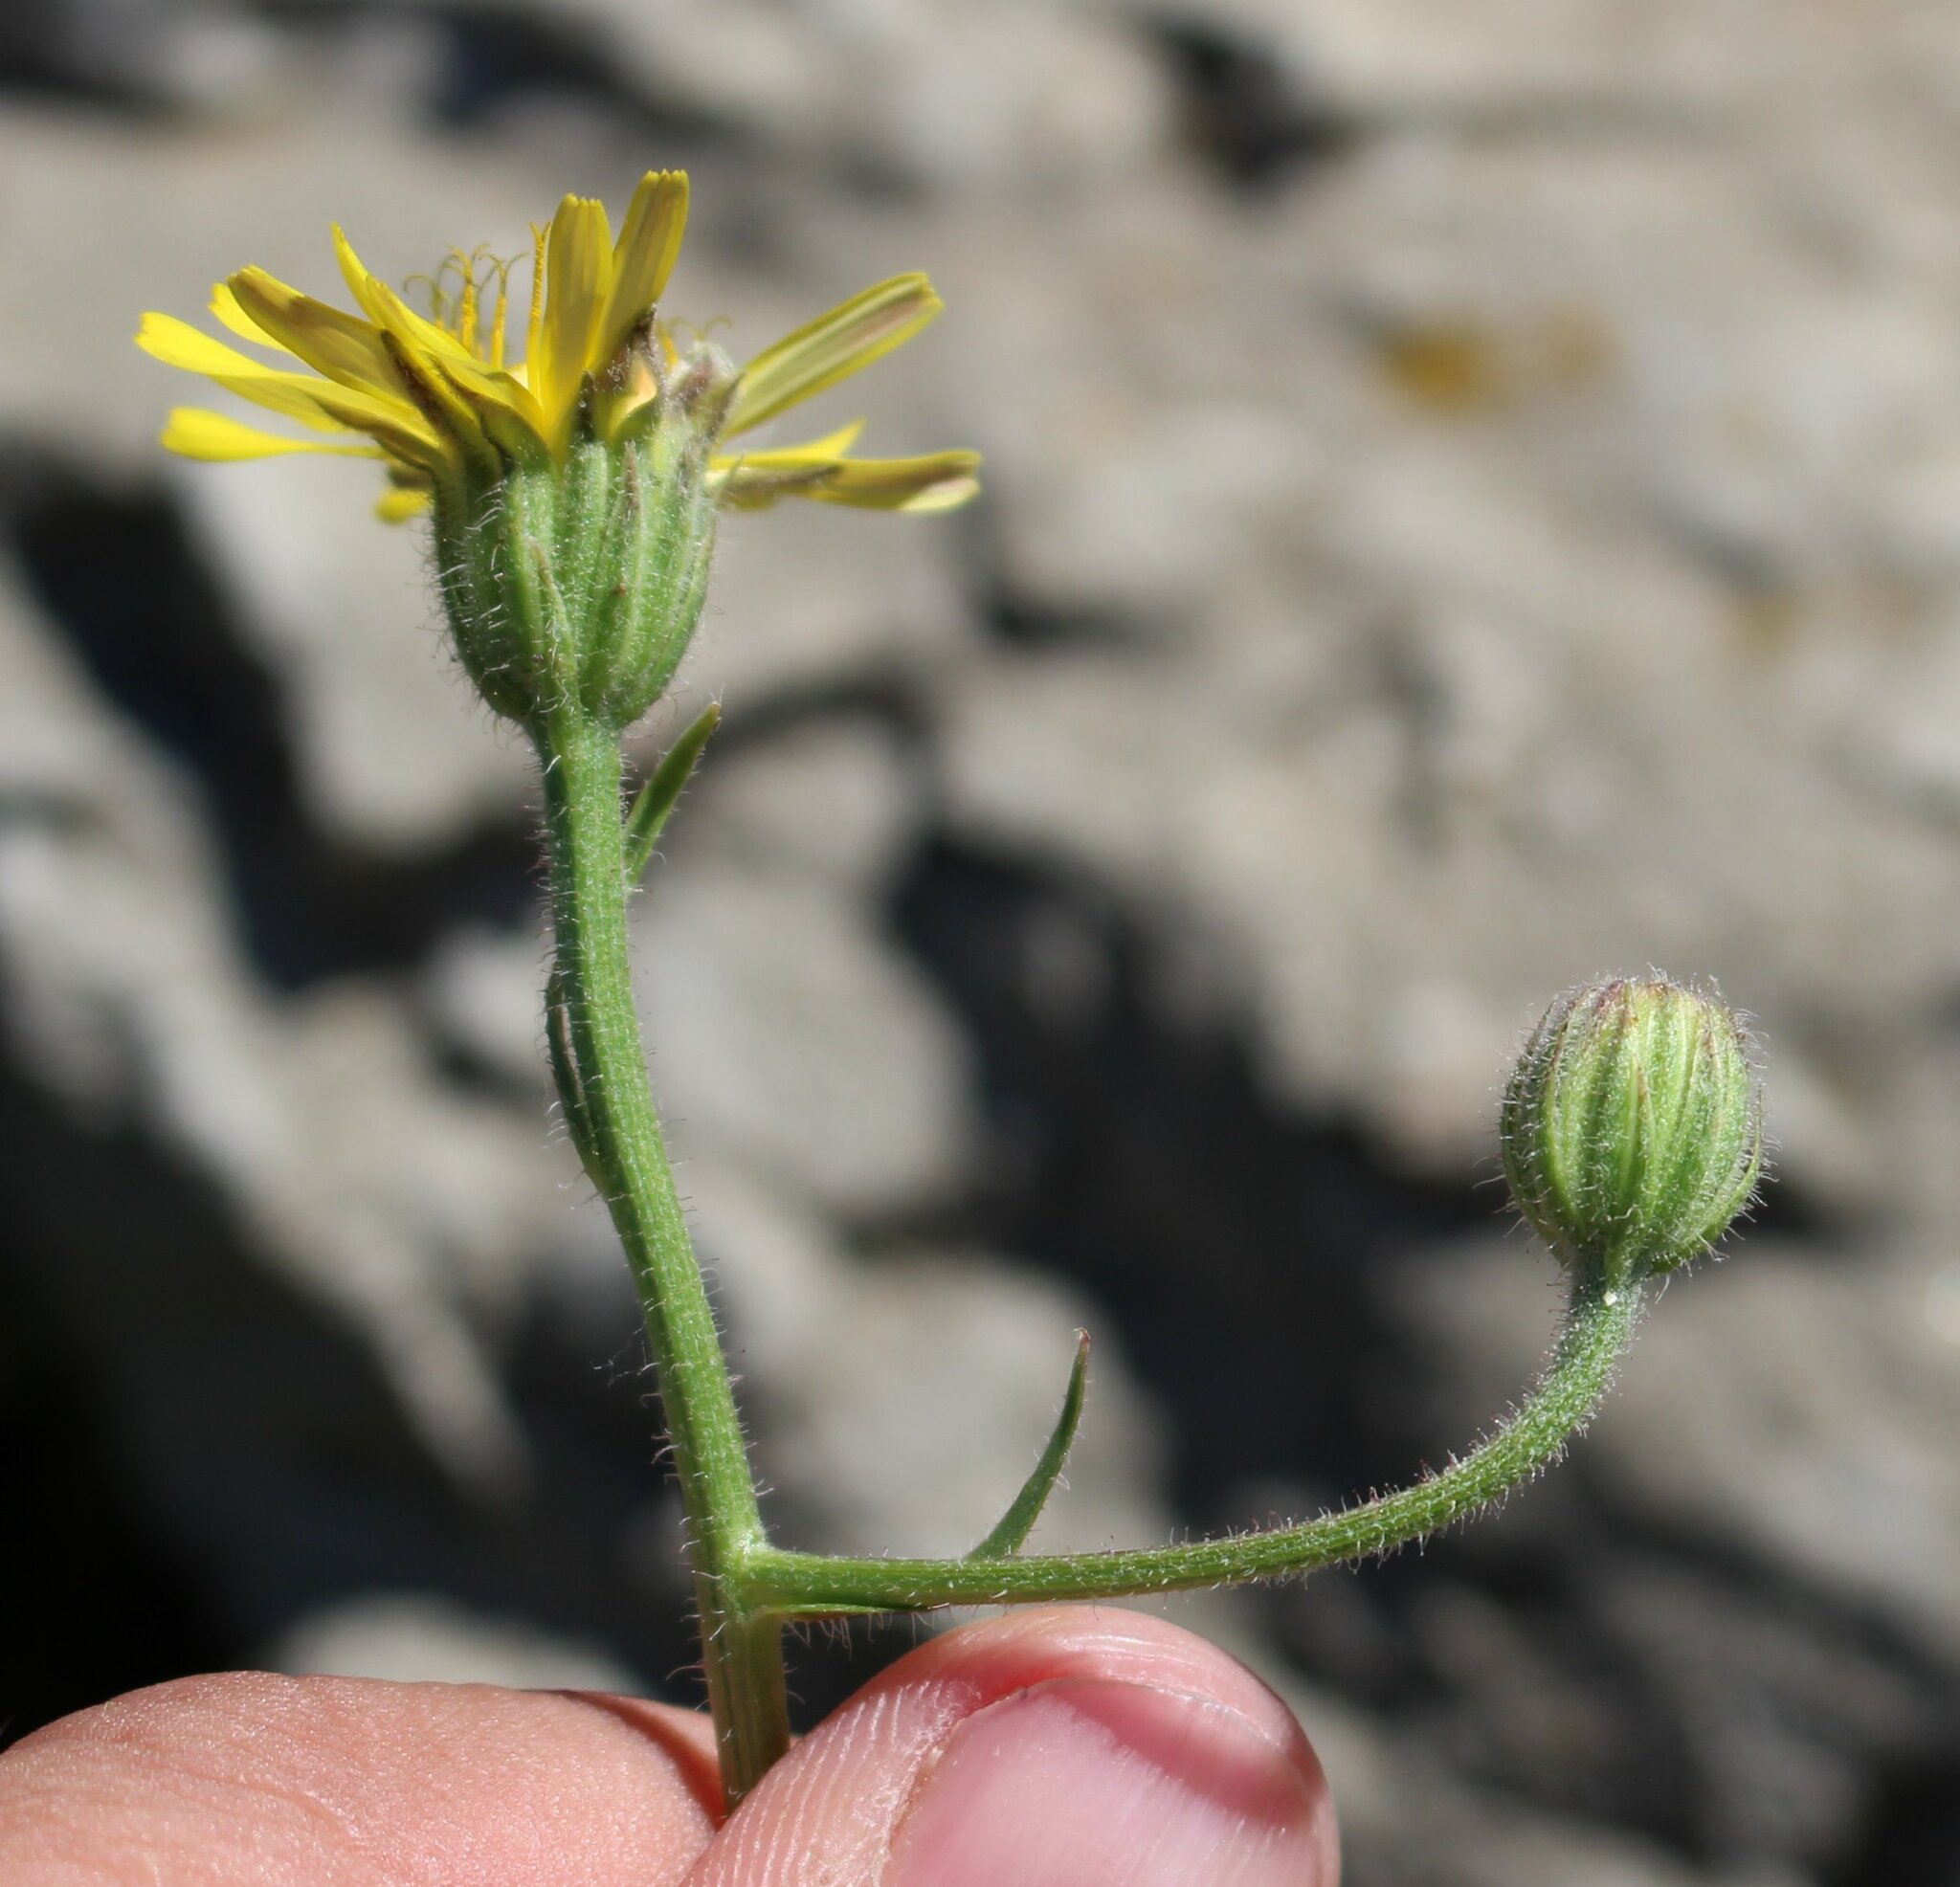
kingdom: Plantae
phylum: Tracheophyta
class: Magnoliopsida
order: Asterales
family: Asteraceae
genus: Crepis
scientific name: Crepis foetida
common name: Stinking hawk's-beard
